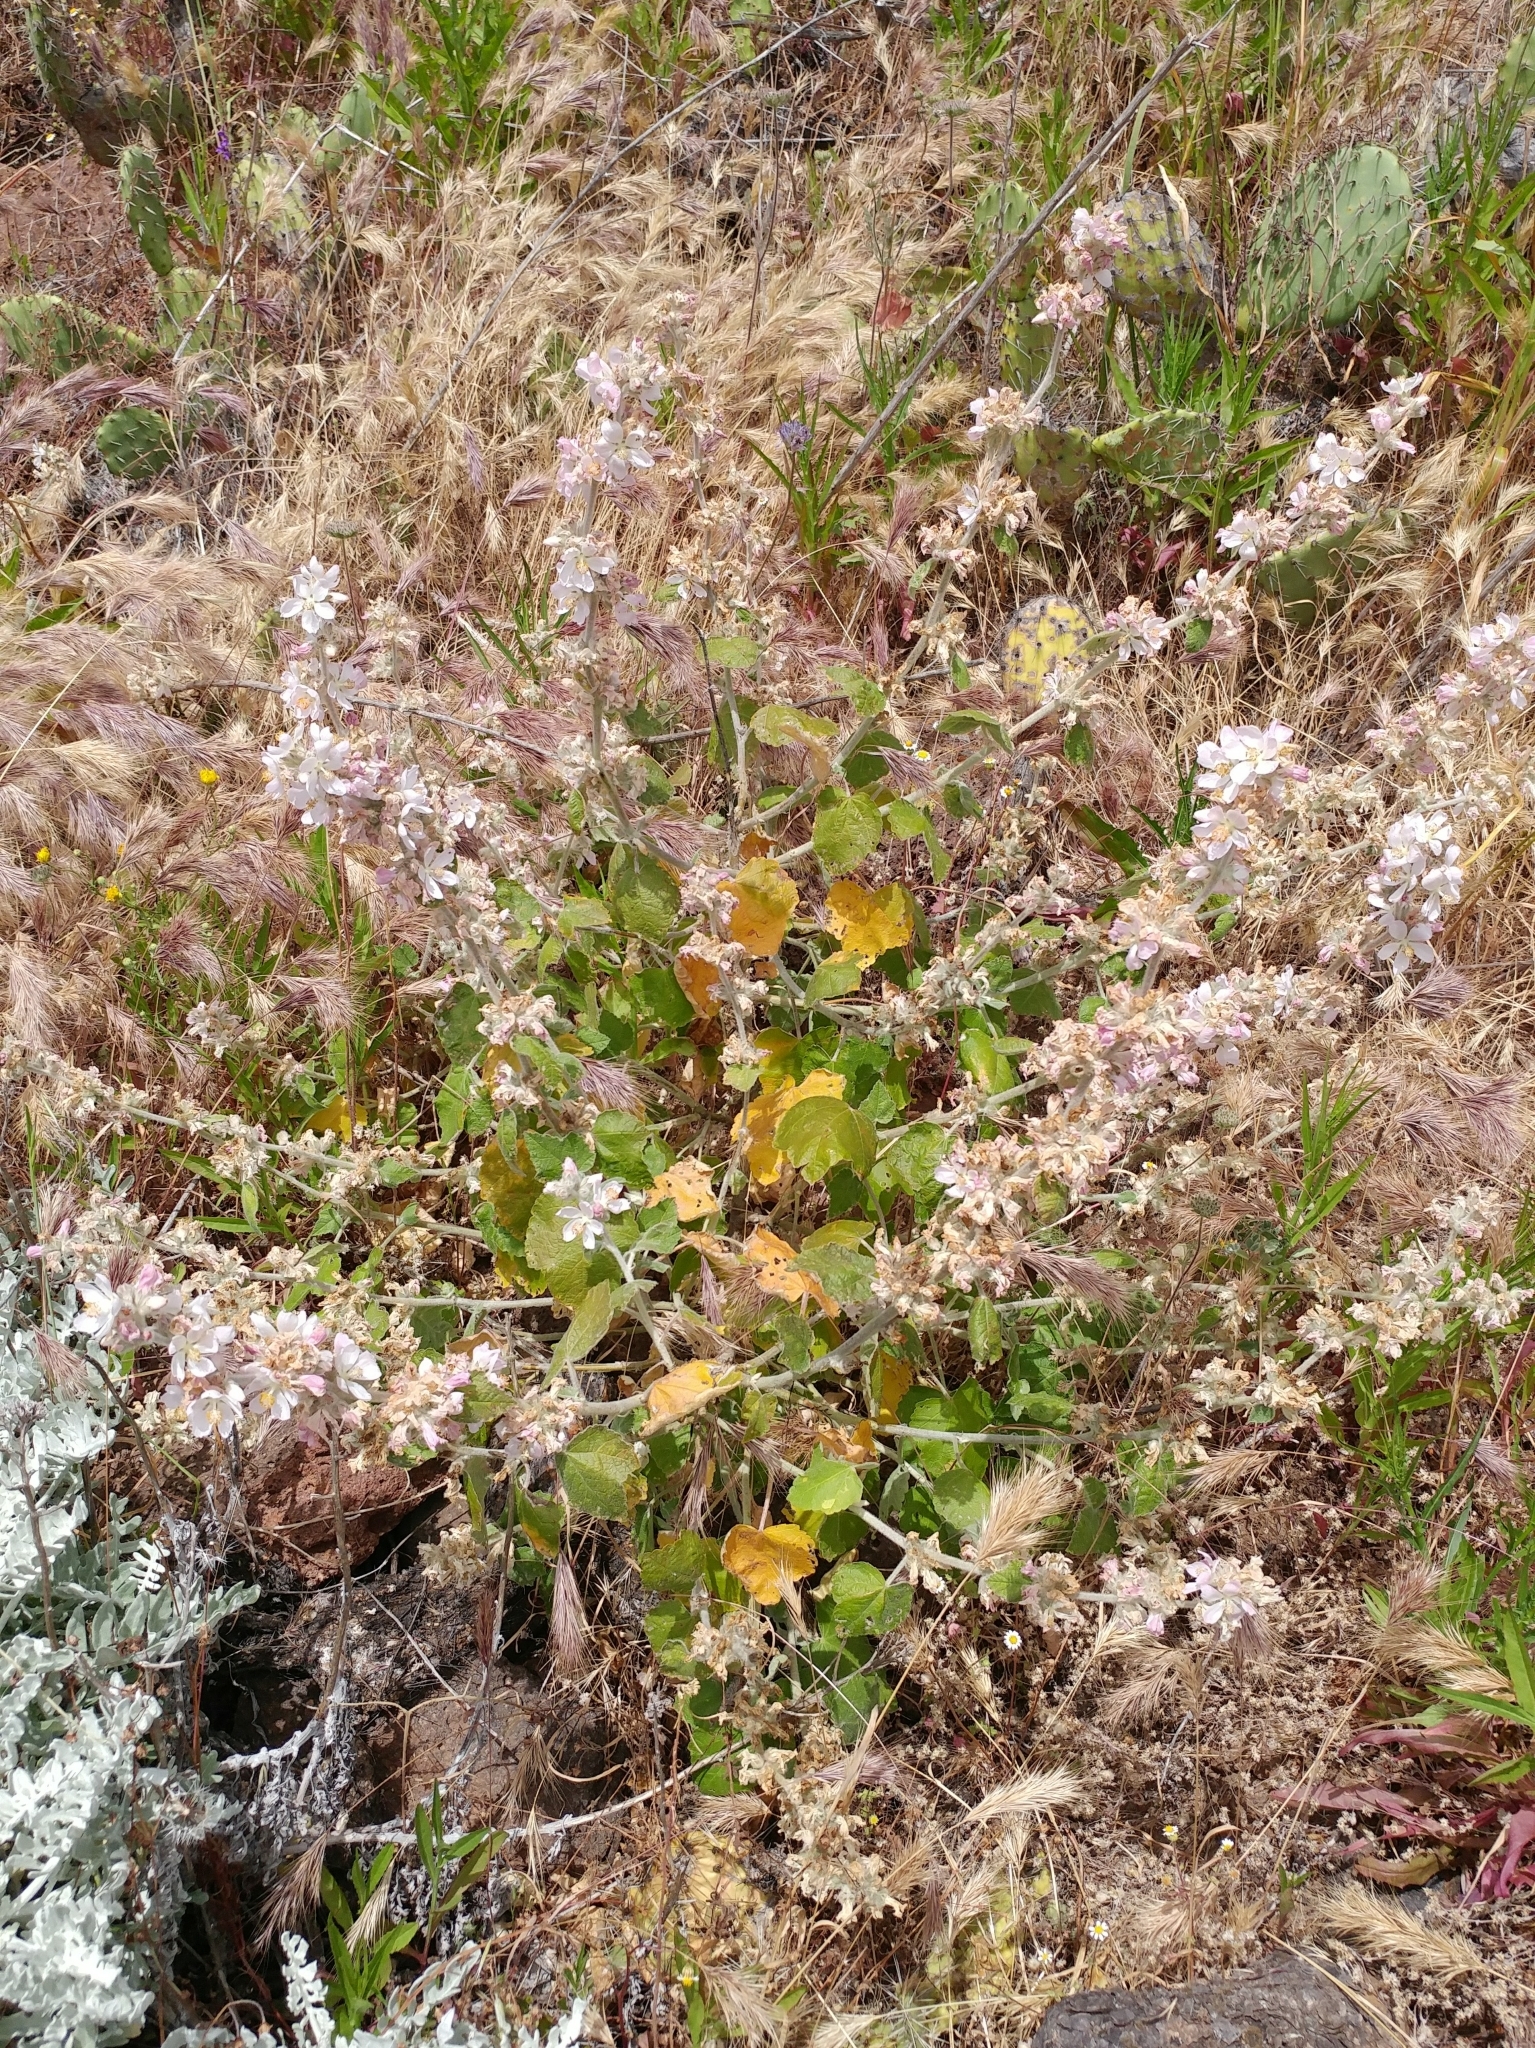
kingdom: Plantae
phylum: Tracheophyta
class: Magnoliopsida
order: Malvales
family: Malvaceae
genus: Malacothamnus
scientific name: Malacothamnus clementinus
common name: San clemente island bush-mallow
